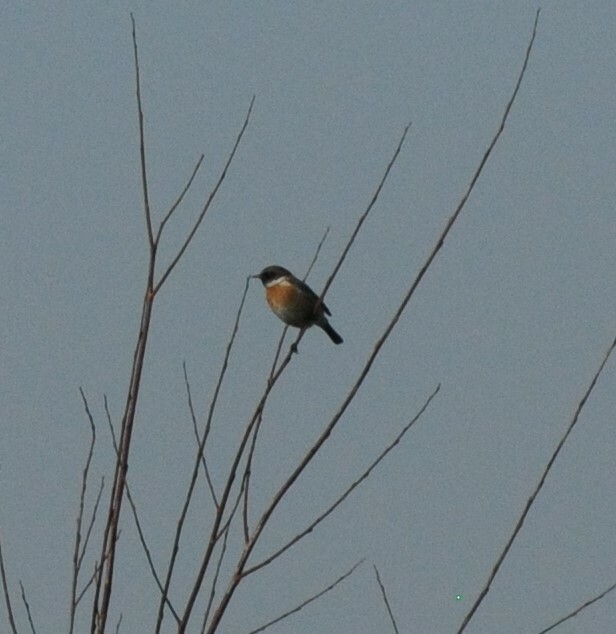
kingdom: Animalia
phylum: Chordata
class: Aves
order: Passeriformes
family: Muscicapidae
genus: Saxicola
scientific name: Saxicola rubicola
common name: European stonechat
